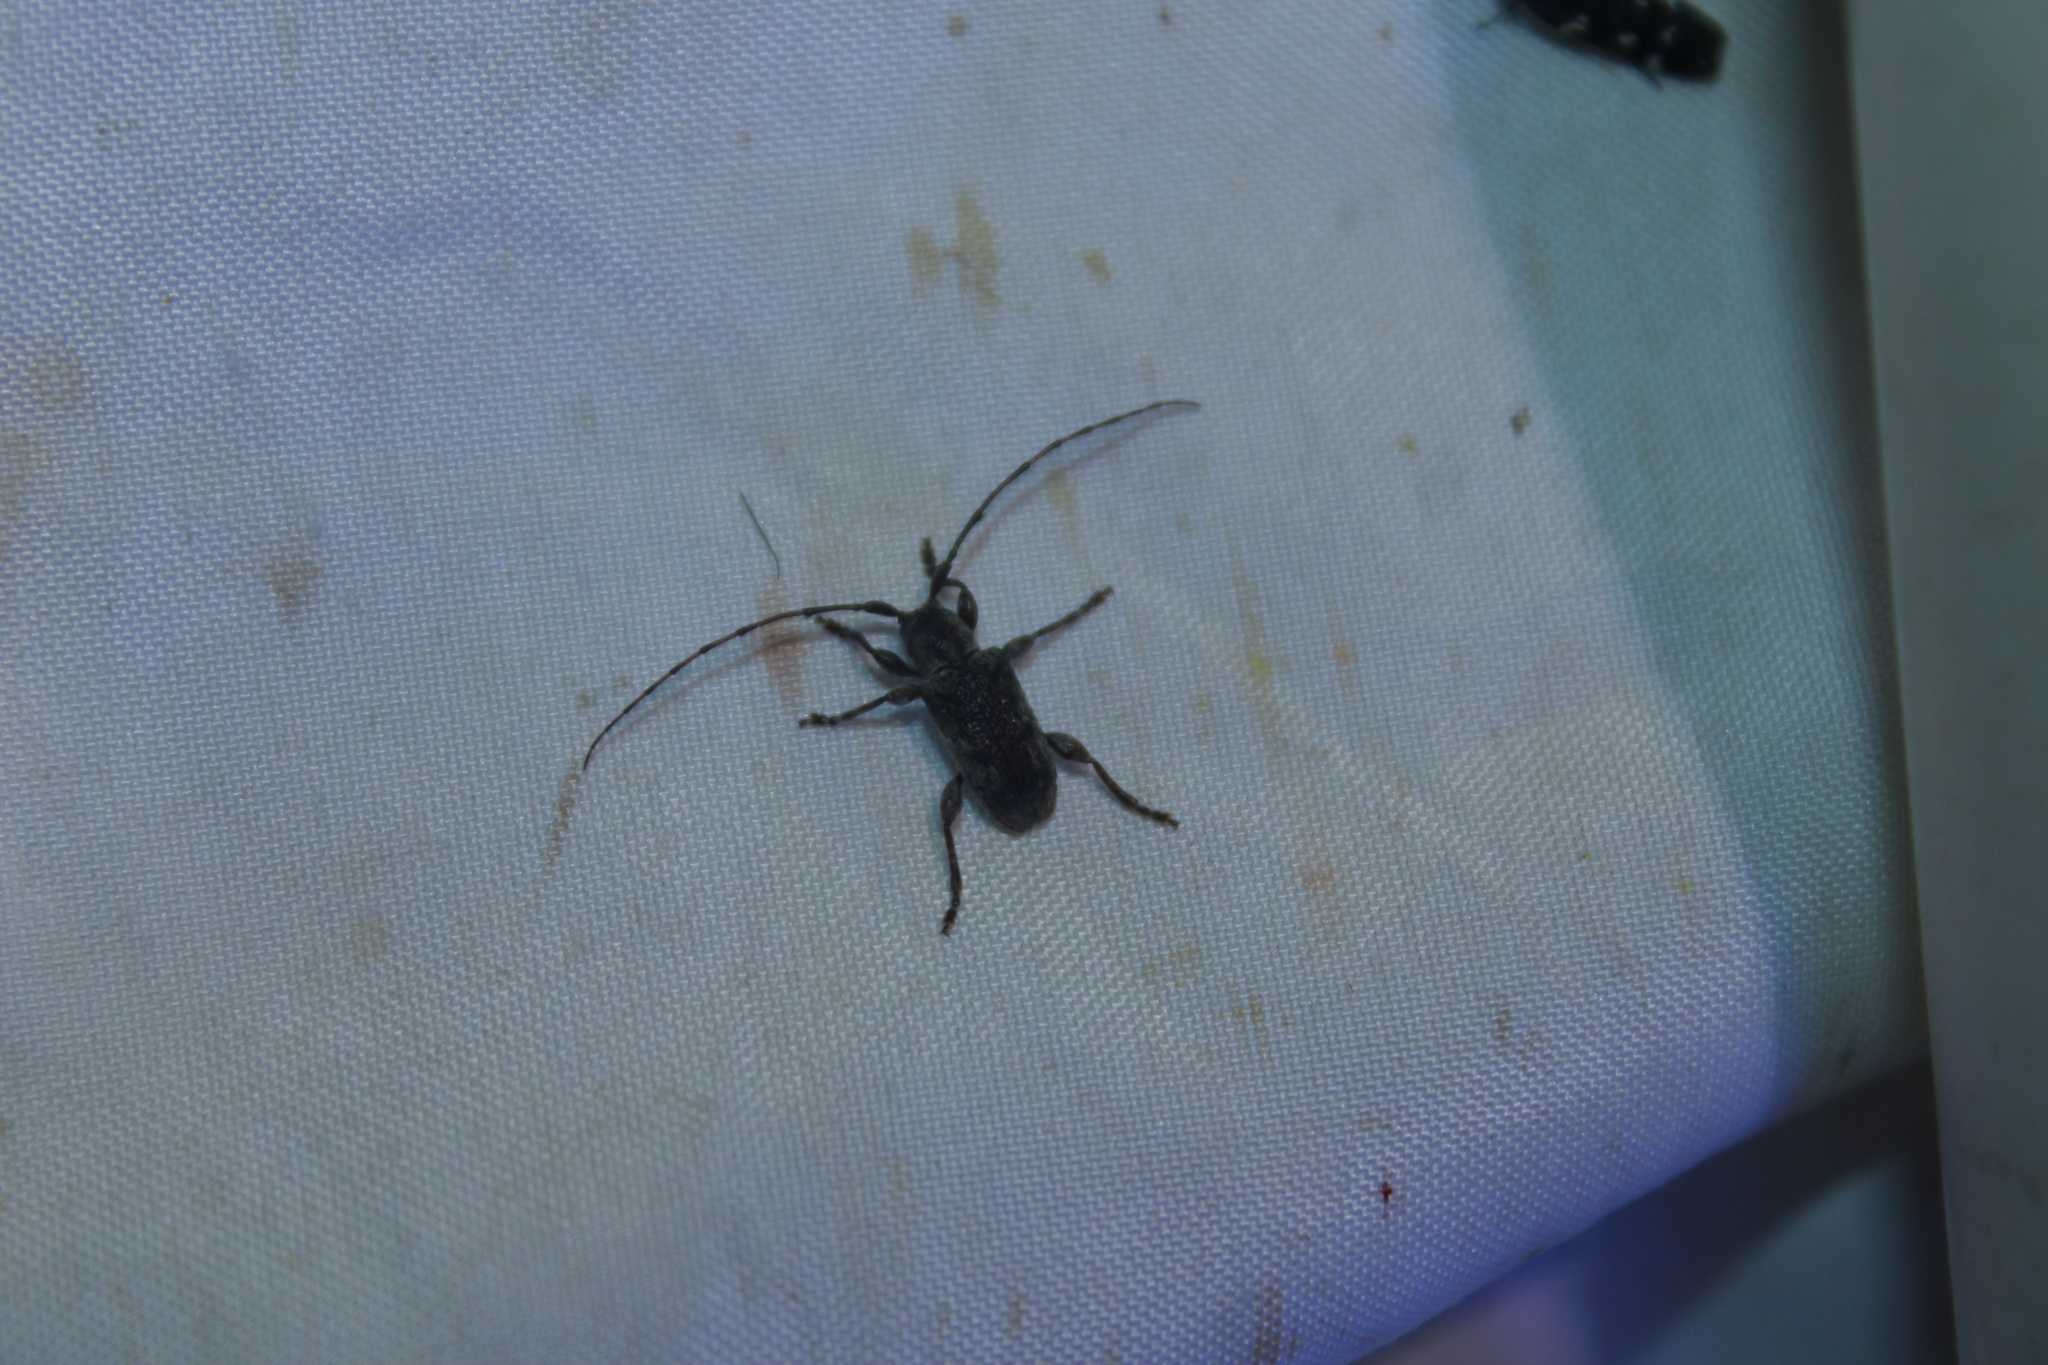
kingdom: Animalia
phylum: Arthropoda
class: Insecta
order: Coleoptera
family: Cerambycidae
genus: Ecyrus
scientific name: Ecyrus dasycerus
